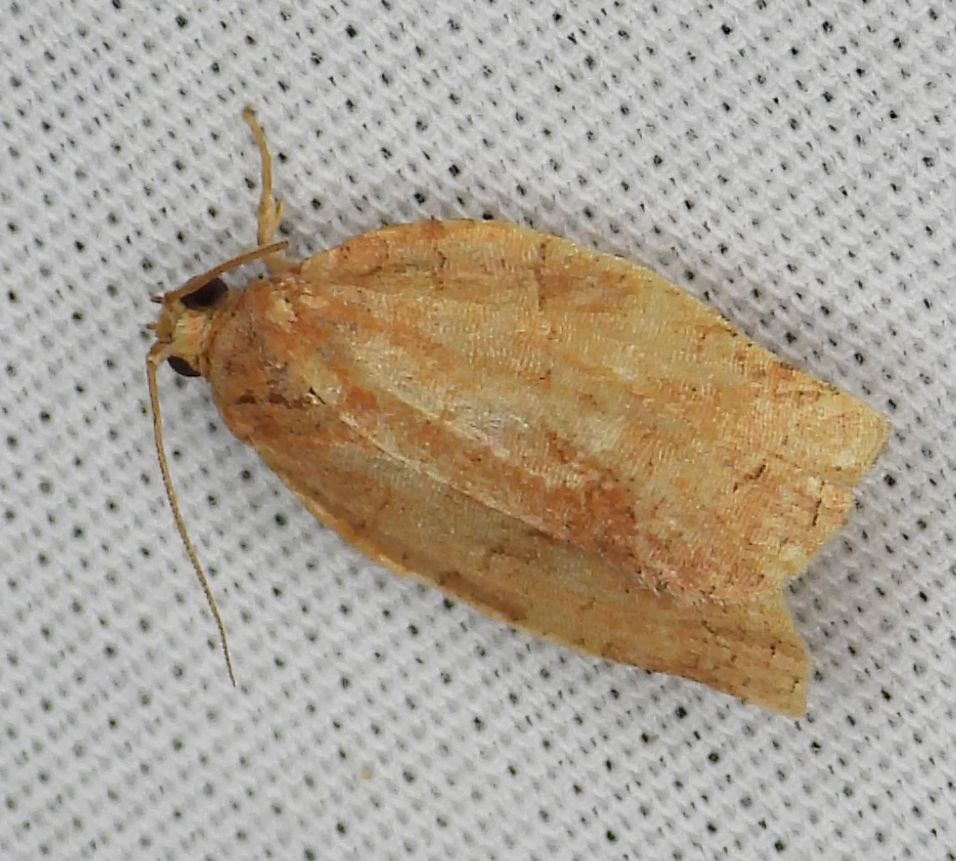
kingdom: Animalia
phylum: Arthropoda
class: Insecta
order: Lepidoptera
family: Tortricidae
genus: Choristoneura
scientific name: Choristoneura rosaceana
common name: Oblique-banded leafroller moth
